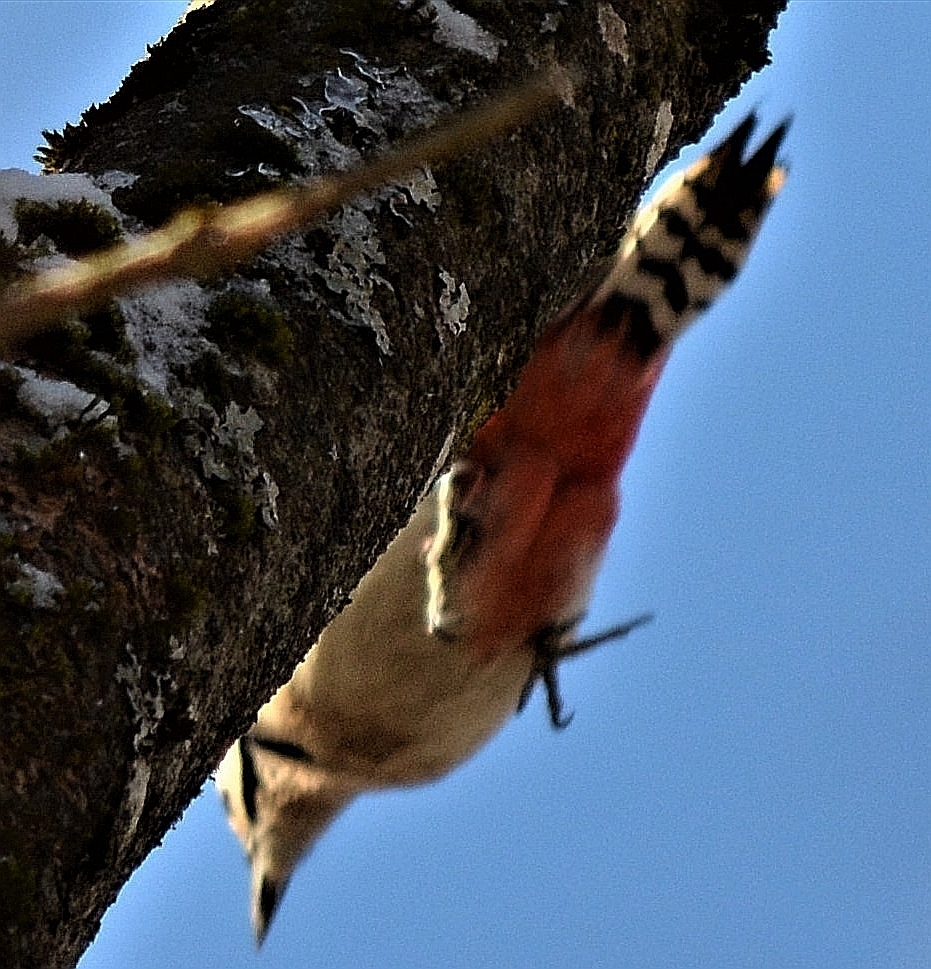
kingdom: Animalia
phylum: Chordata
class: Aves
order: Piciformes
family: Picidae
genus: Dendrocopos
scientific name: Dendrocopos major
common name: Great spotted woodpecker
